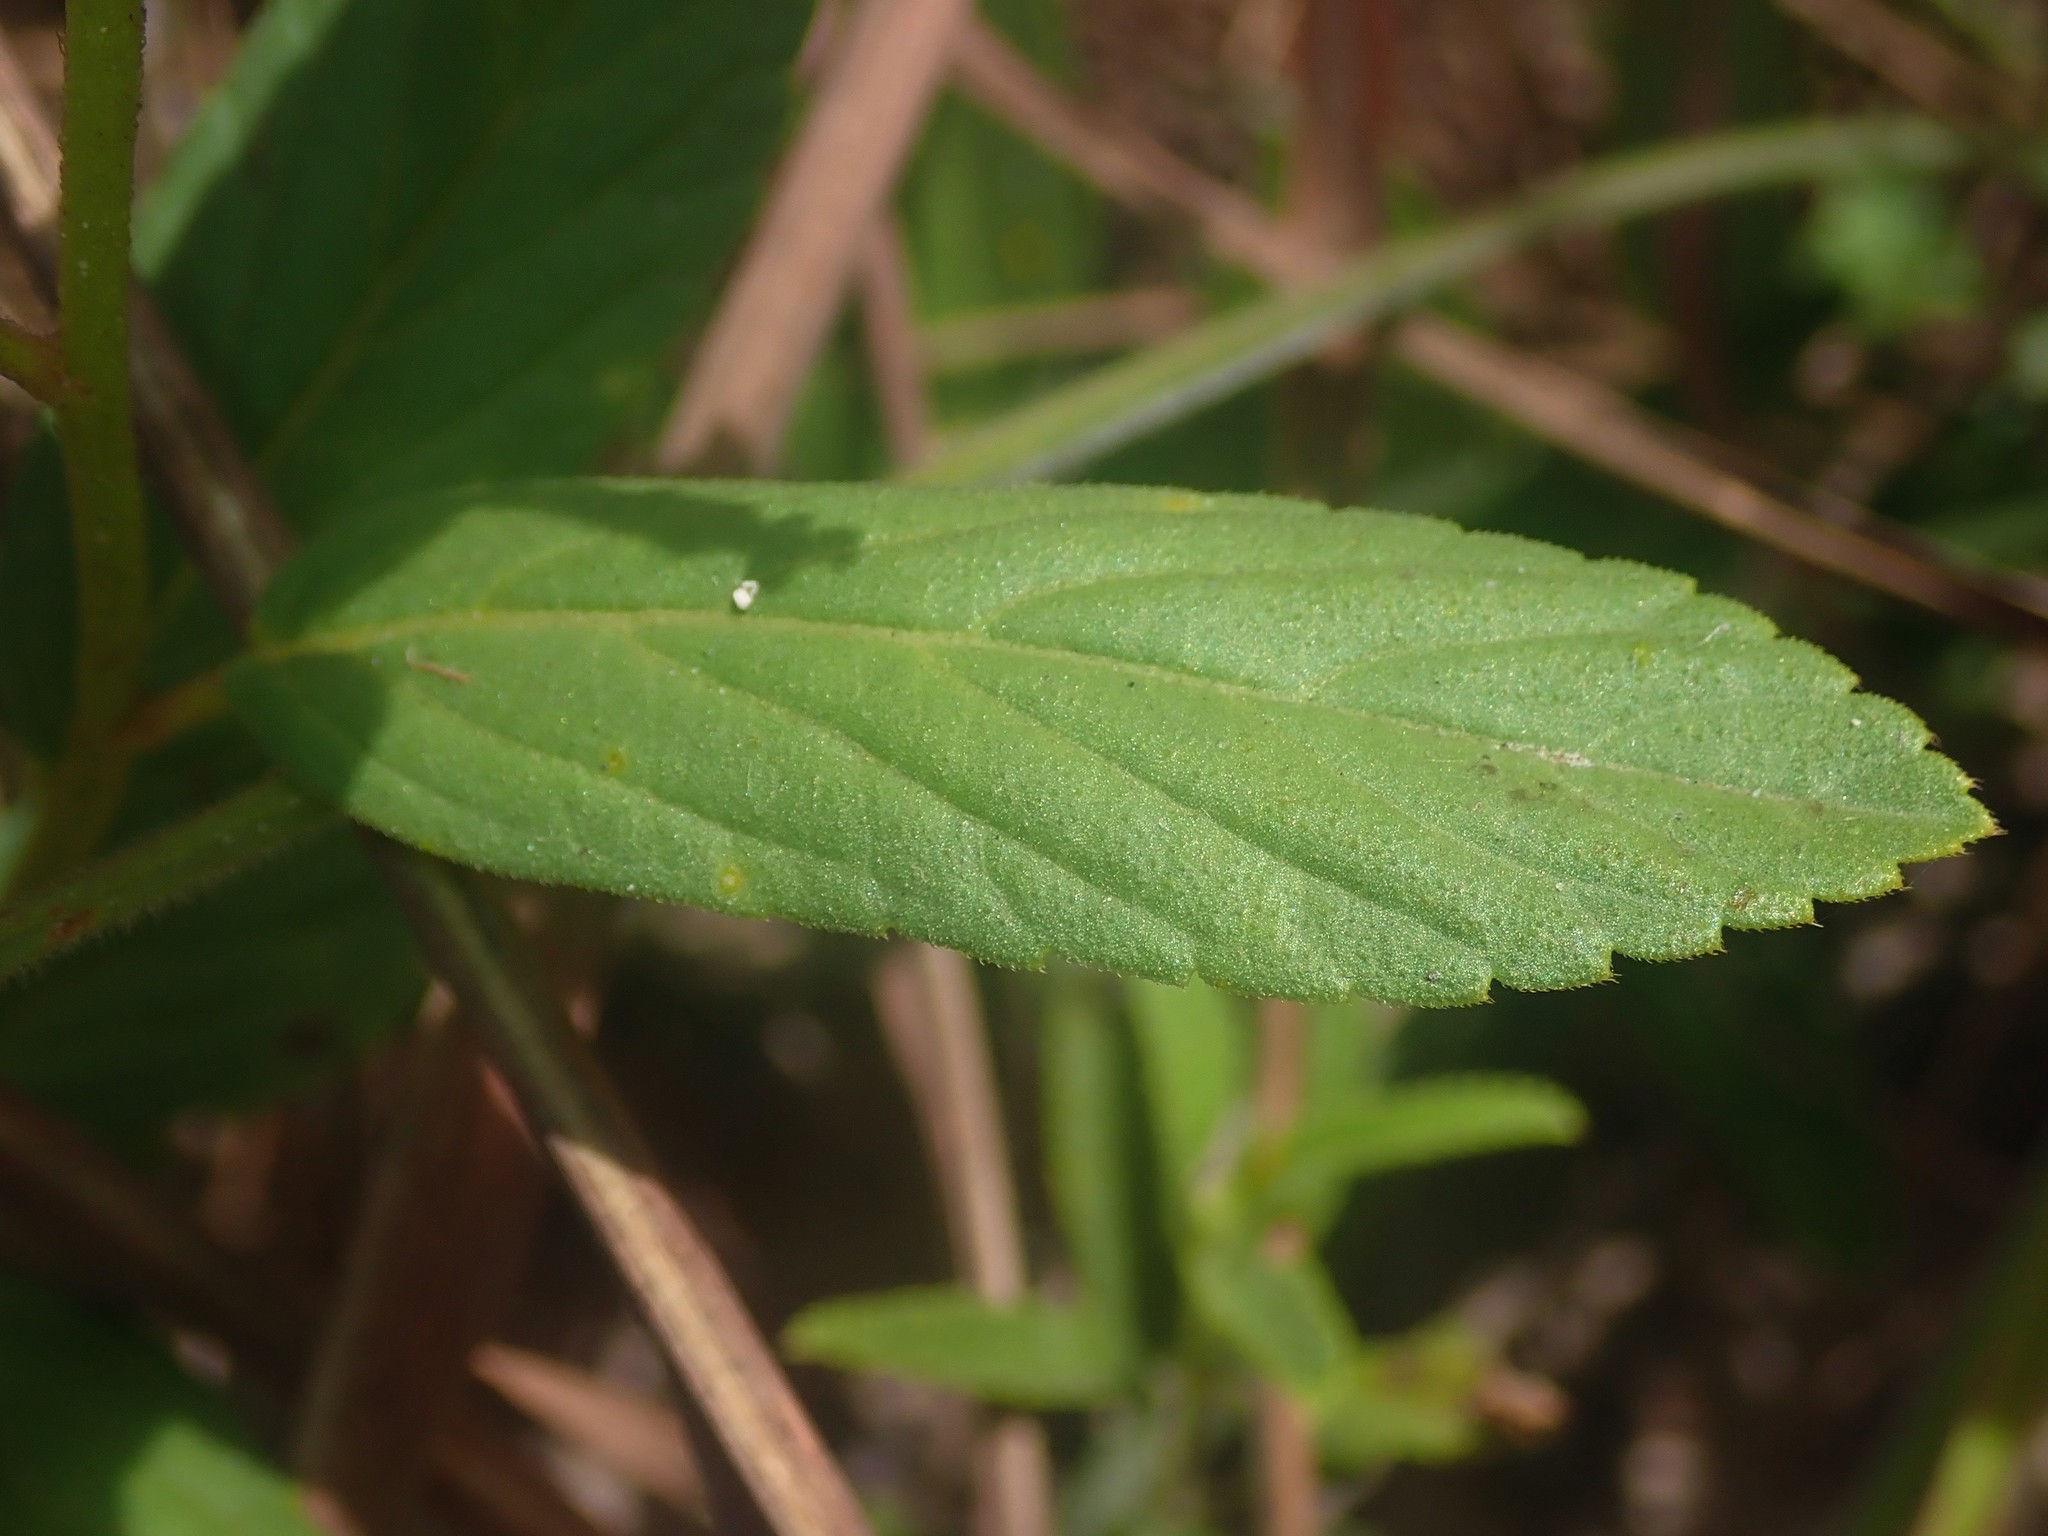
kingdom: Plantae
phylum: Tracheophyta
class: Magnoliopsida
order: Malpighiales
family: Turneraceae
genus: Turnera
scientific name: Turnera coerulea
